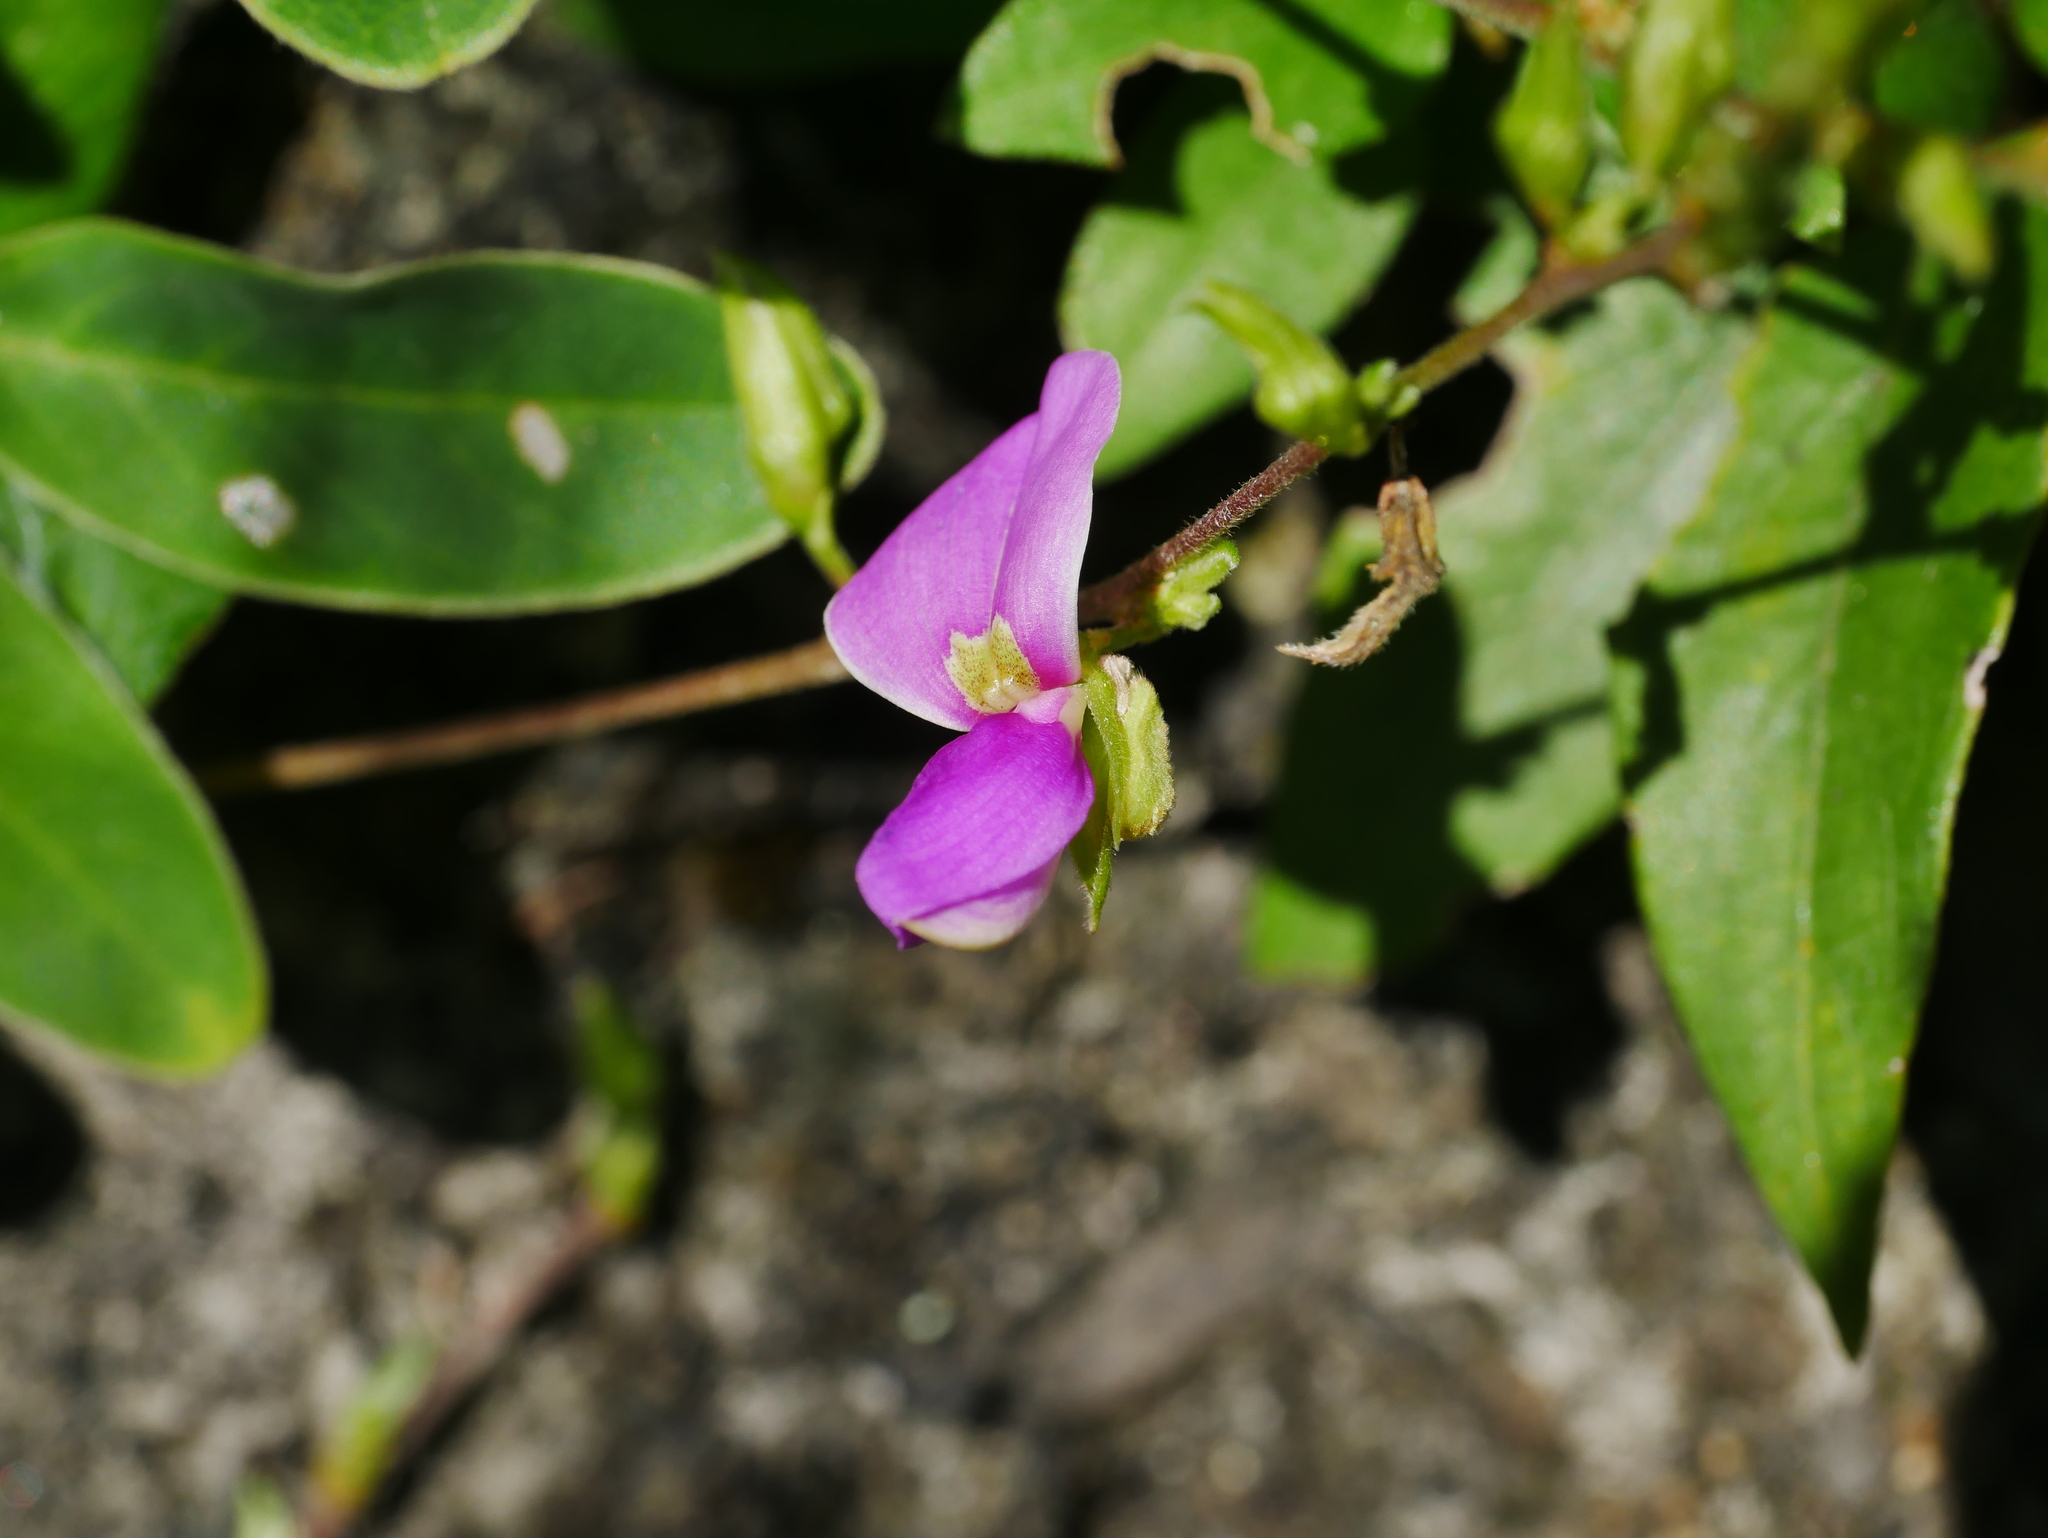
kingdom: Plantae
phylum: Tracheophyta
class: Magnoliopsida
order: Fabales
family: Fabaceae
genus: Galactia
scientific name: Galactia striata
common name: Florida hammock milkpea
